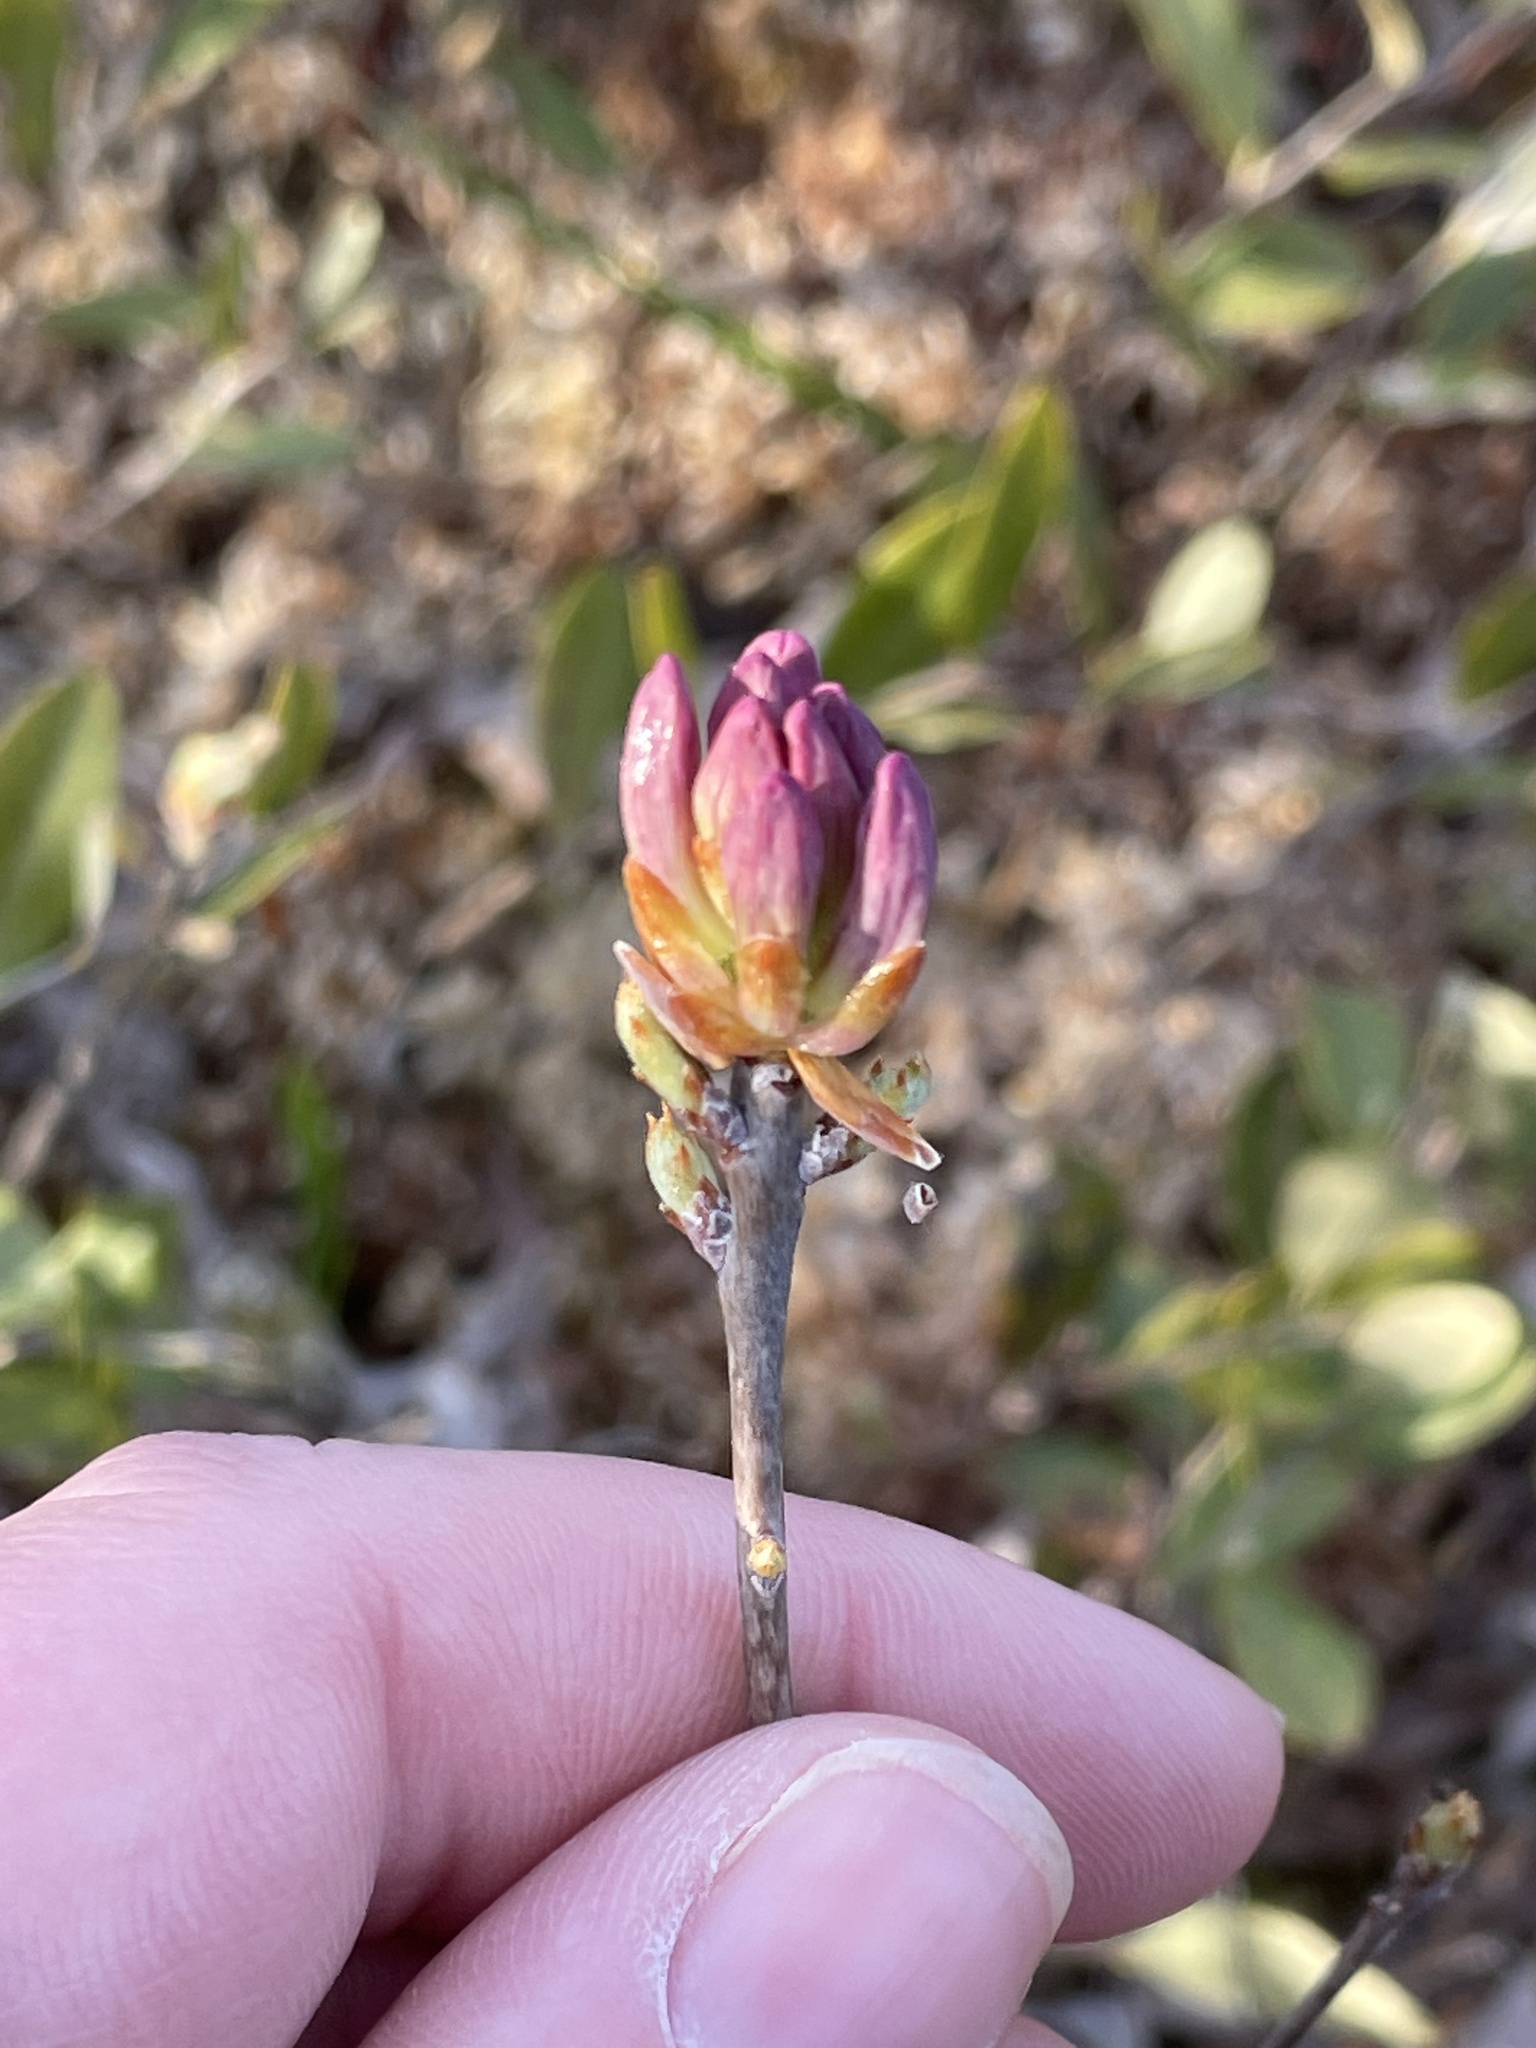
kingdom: Plantae
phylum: Tracheophyta
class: Magnoliopsida
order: Ericales
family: Ericaceae
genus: Rhododendron
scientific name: Rhododendron canadense
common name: Rhodora
